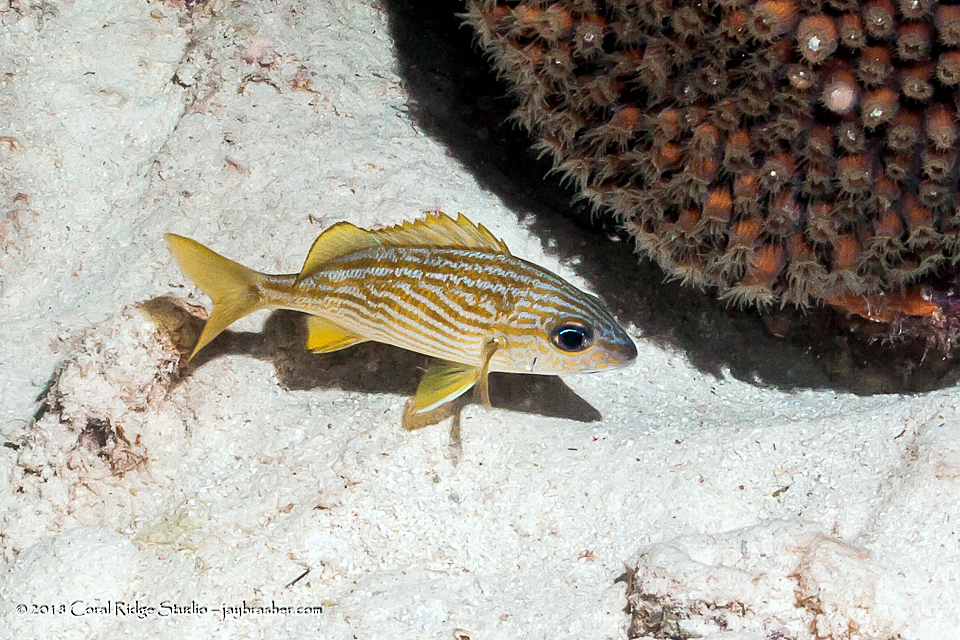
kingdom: Animalia
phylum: Chordata
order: Perciformes
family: Haemulidae
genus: Haemulon
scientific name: Haemulon flavolineatum
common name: French grunt
